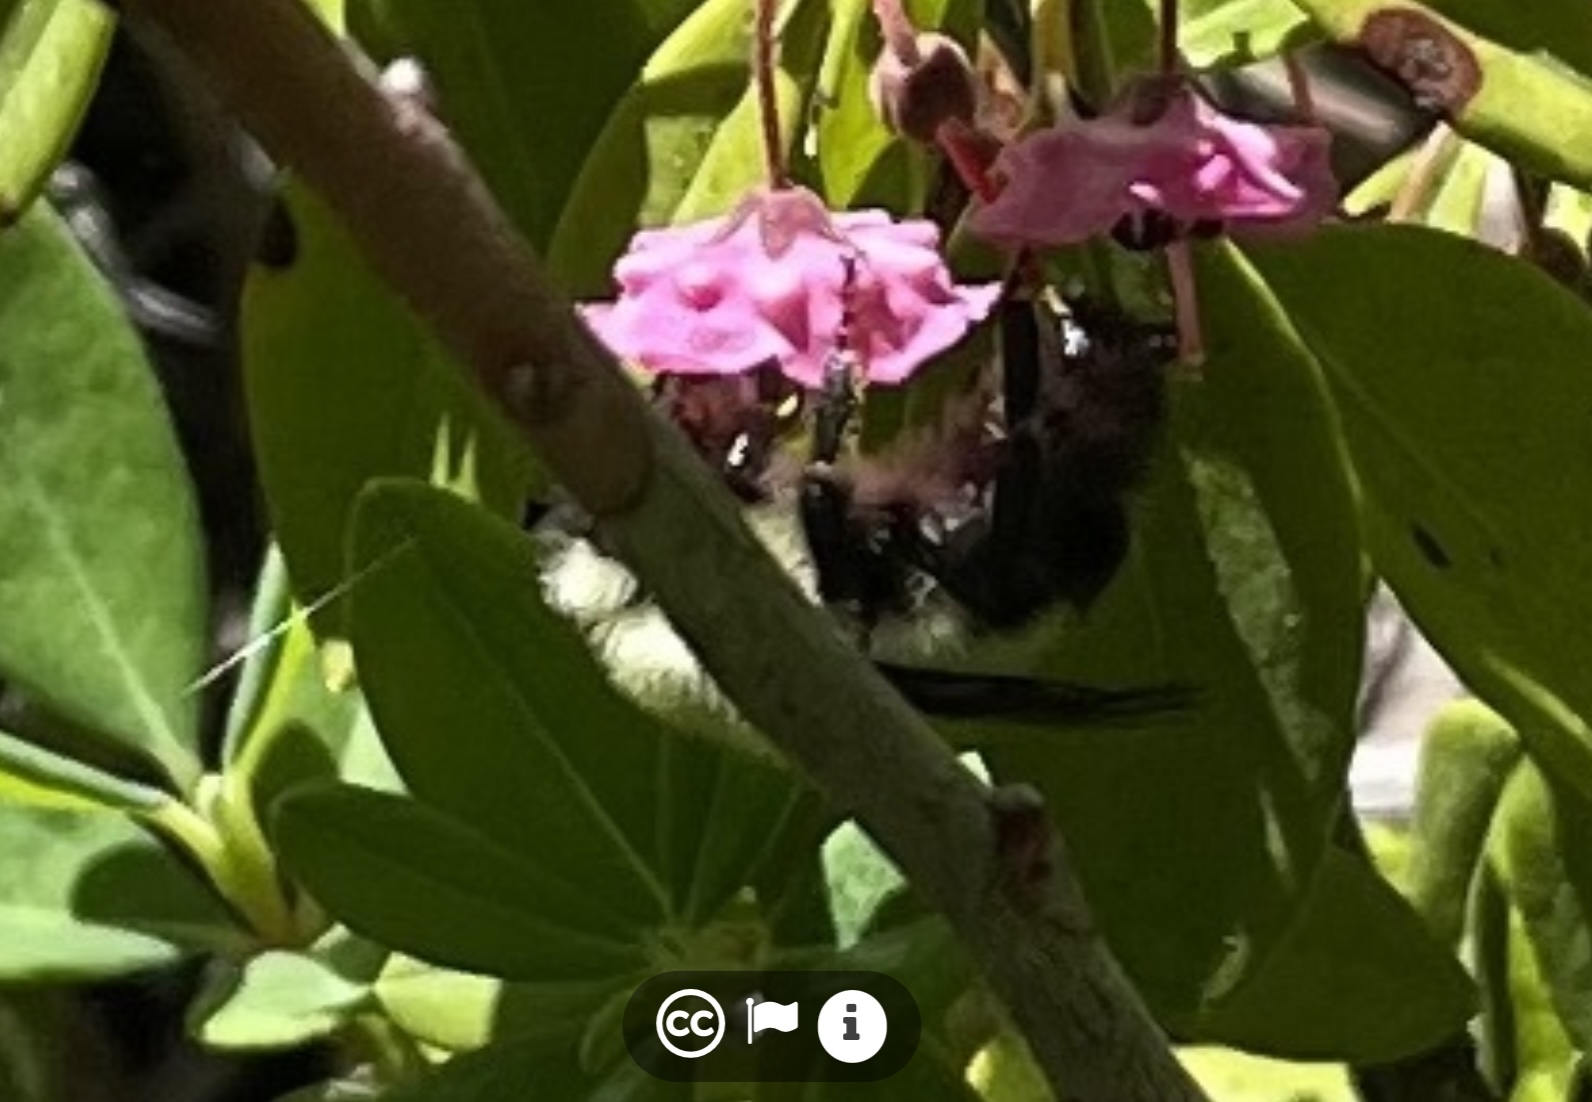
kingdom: Animalia
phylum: Arthropoda
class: Insecta
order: Hymenoptera
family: Apidae
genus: Bombus
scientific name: Bombus bimaculatus
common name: Two-spotted bumble bee
